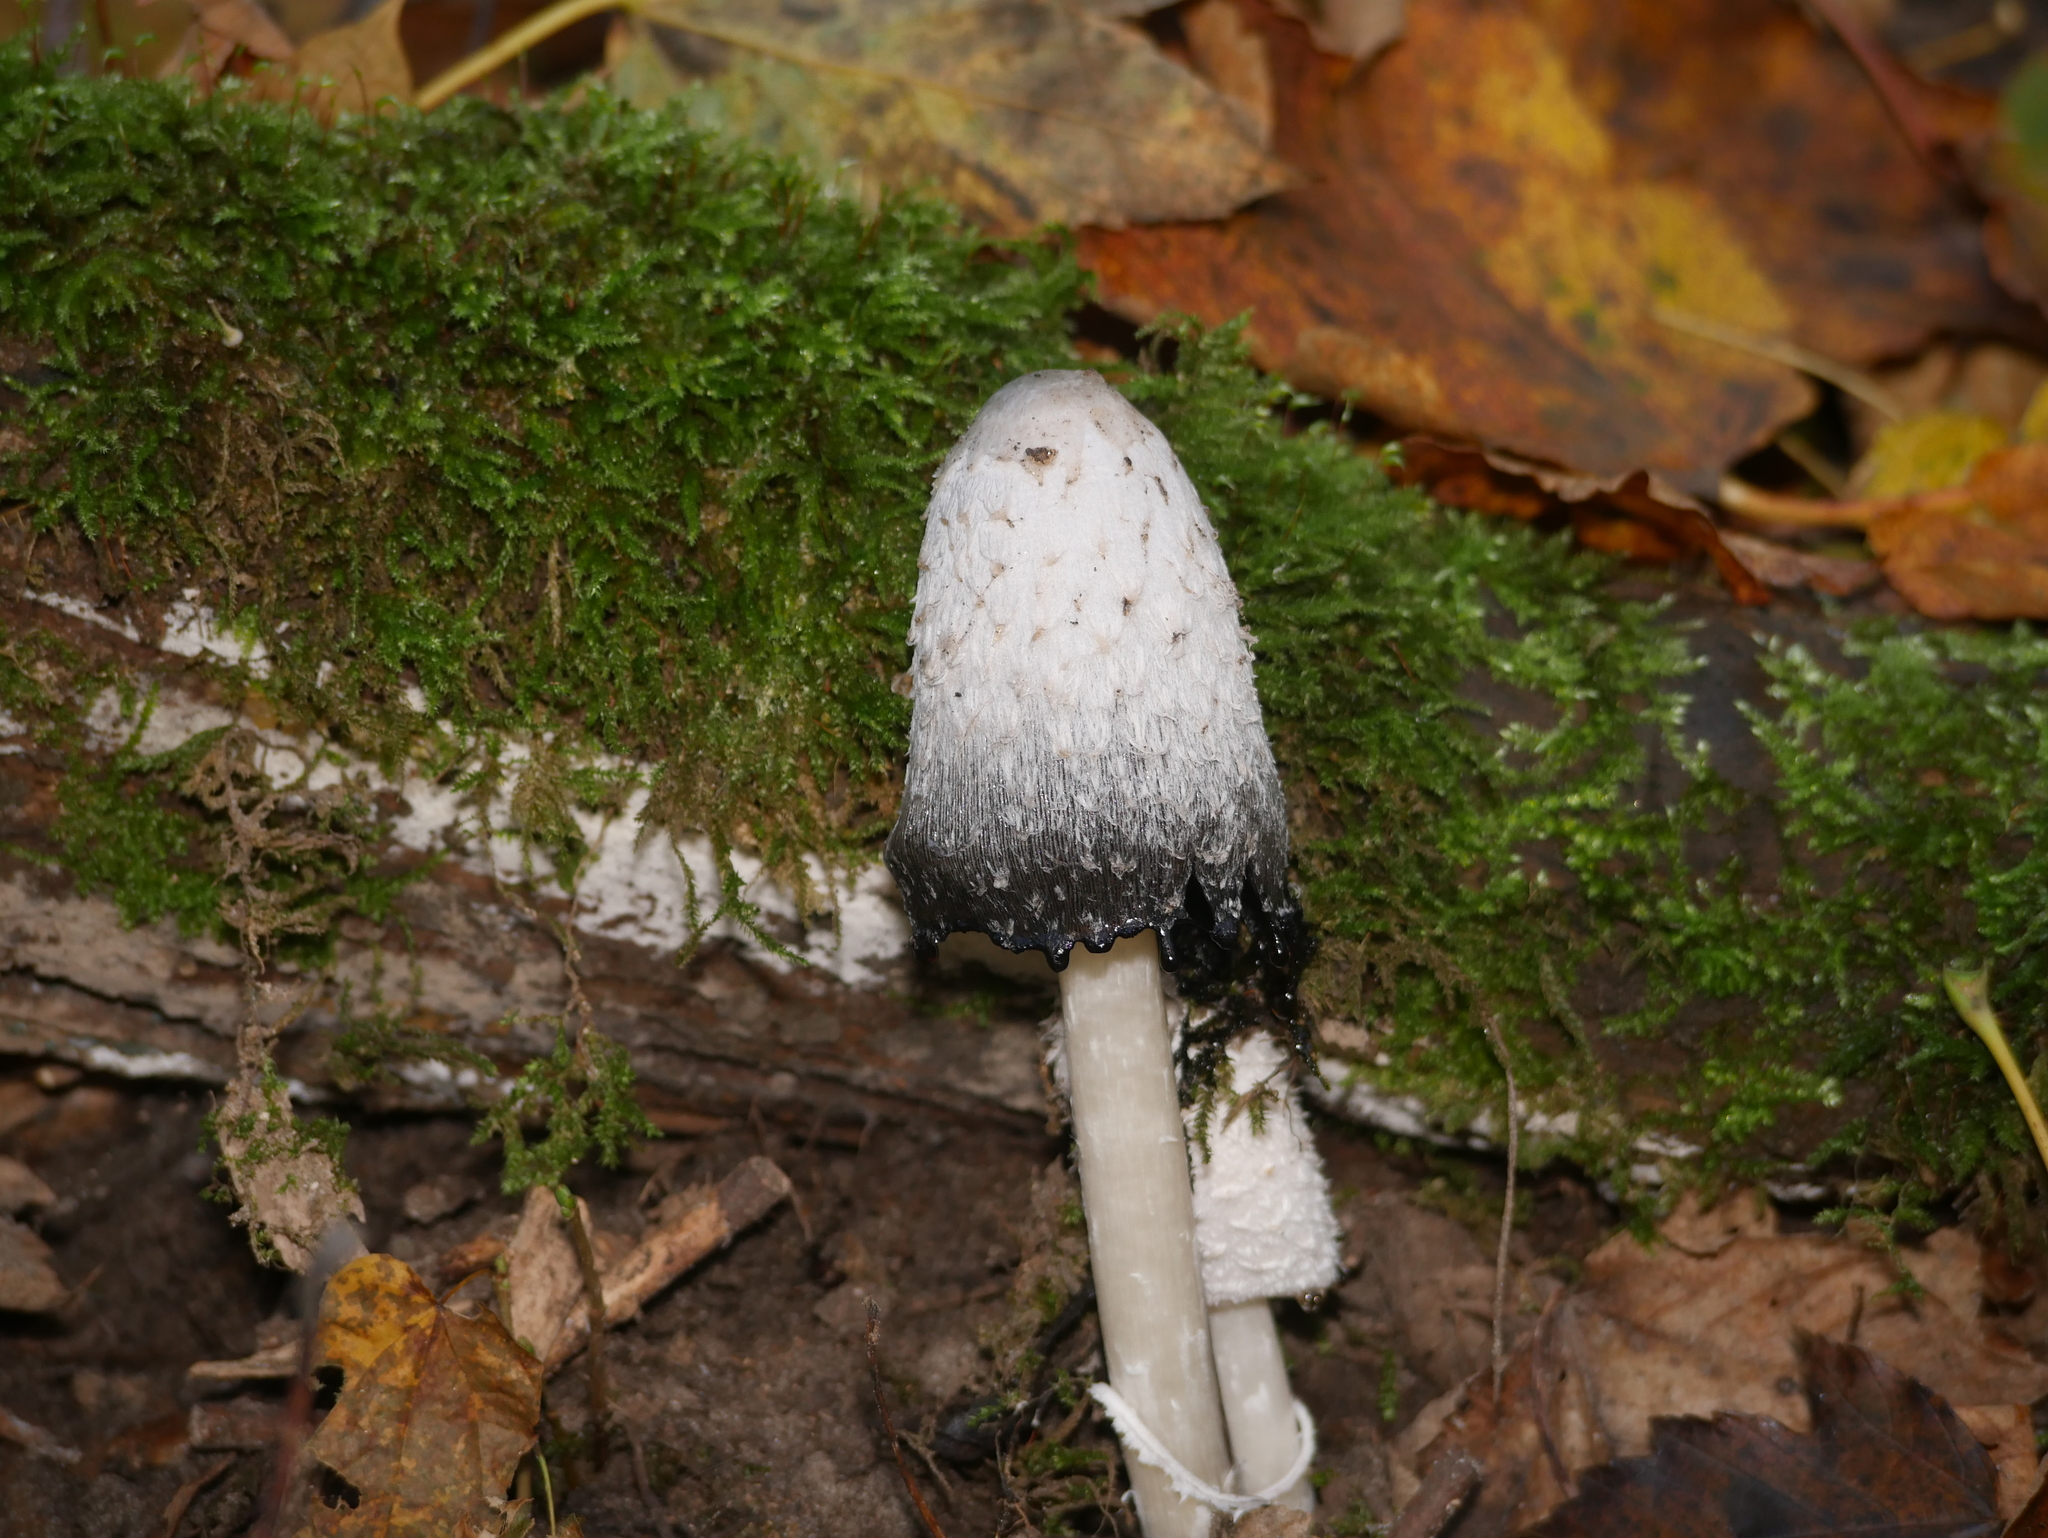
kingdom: Fungi
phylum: Basidiomycota
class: Agaricomycetes
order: Agaricales
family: Agaricaceae
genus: Coprinus
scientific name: Coprinus comatus
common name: Lawyer's wig
